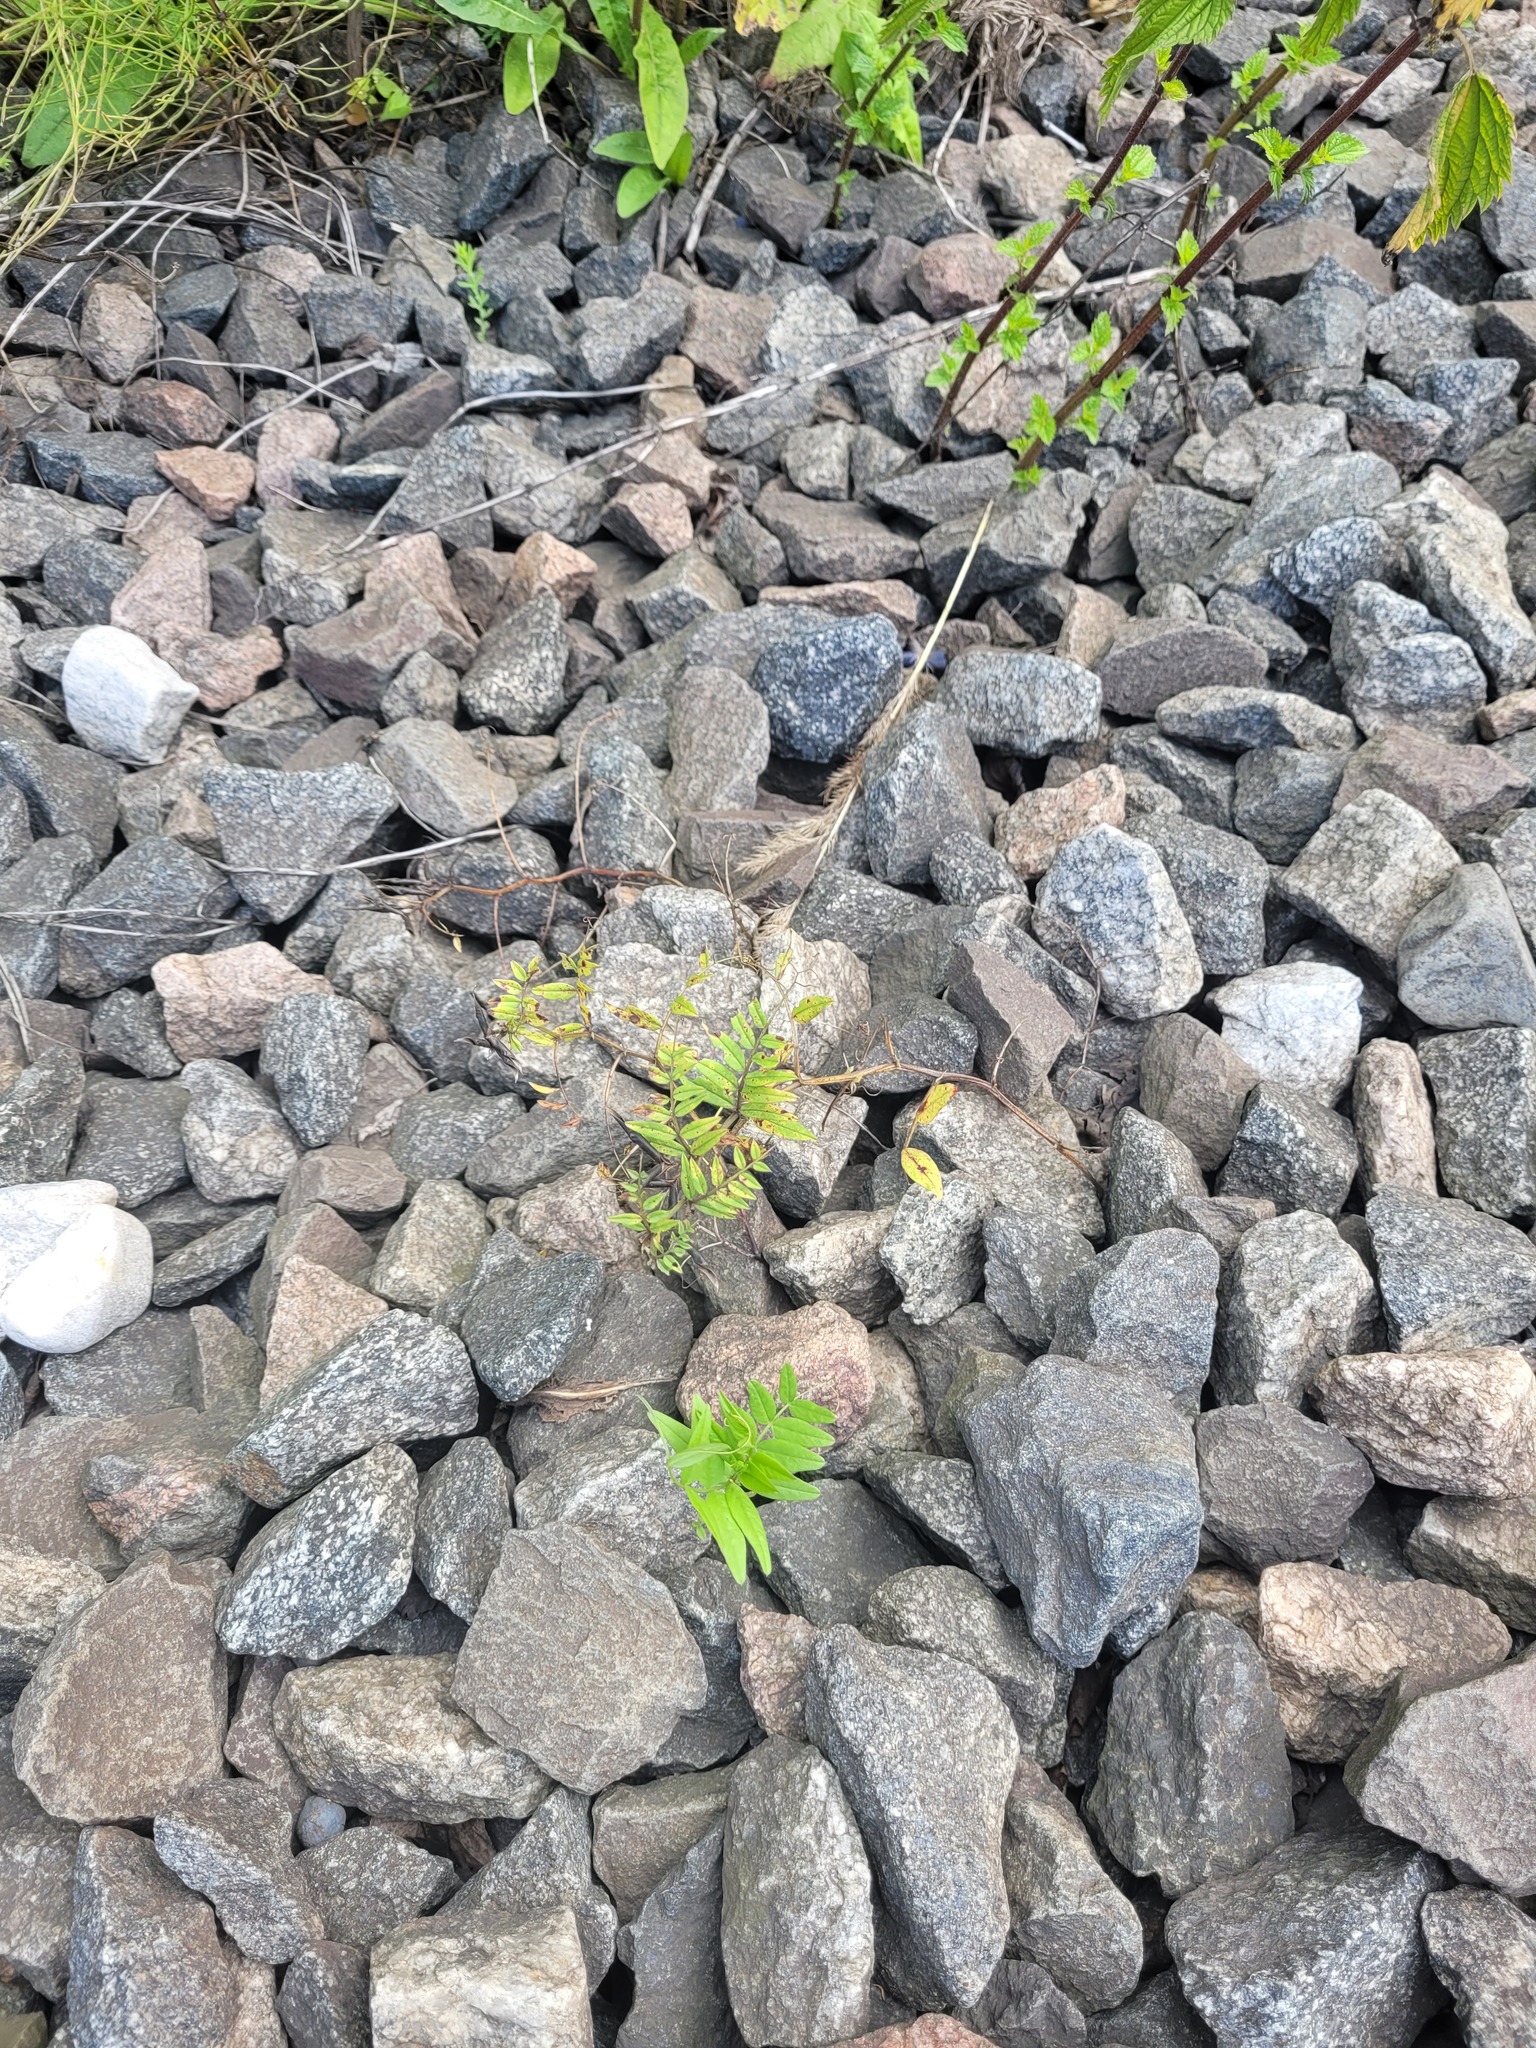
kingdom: Plantae
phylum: Tracheophyta
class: Magnoliopsida
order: Fabales
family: Fabaceae
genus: Vicia
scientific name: Vicia sepium
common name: Bush vetch
